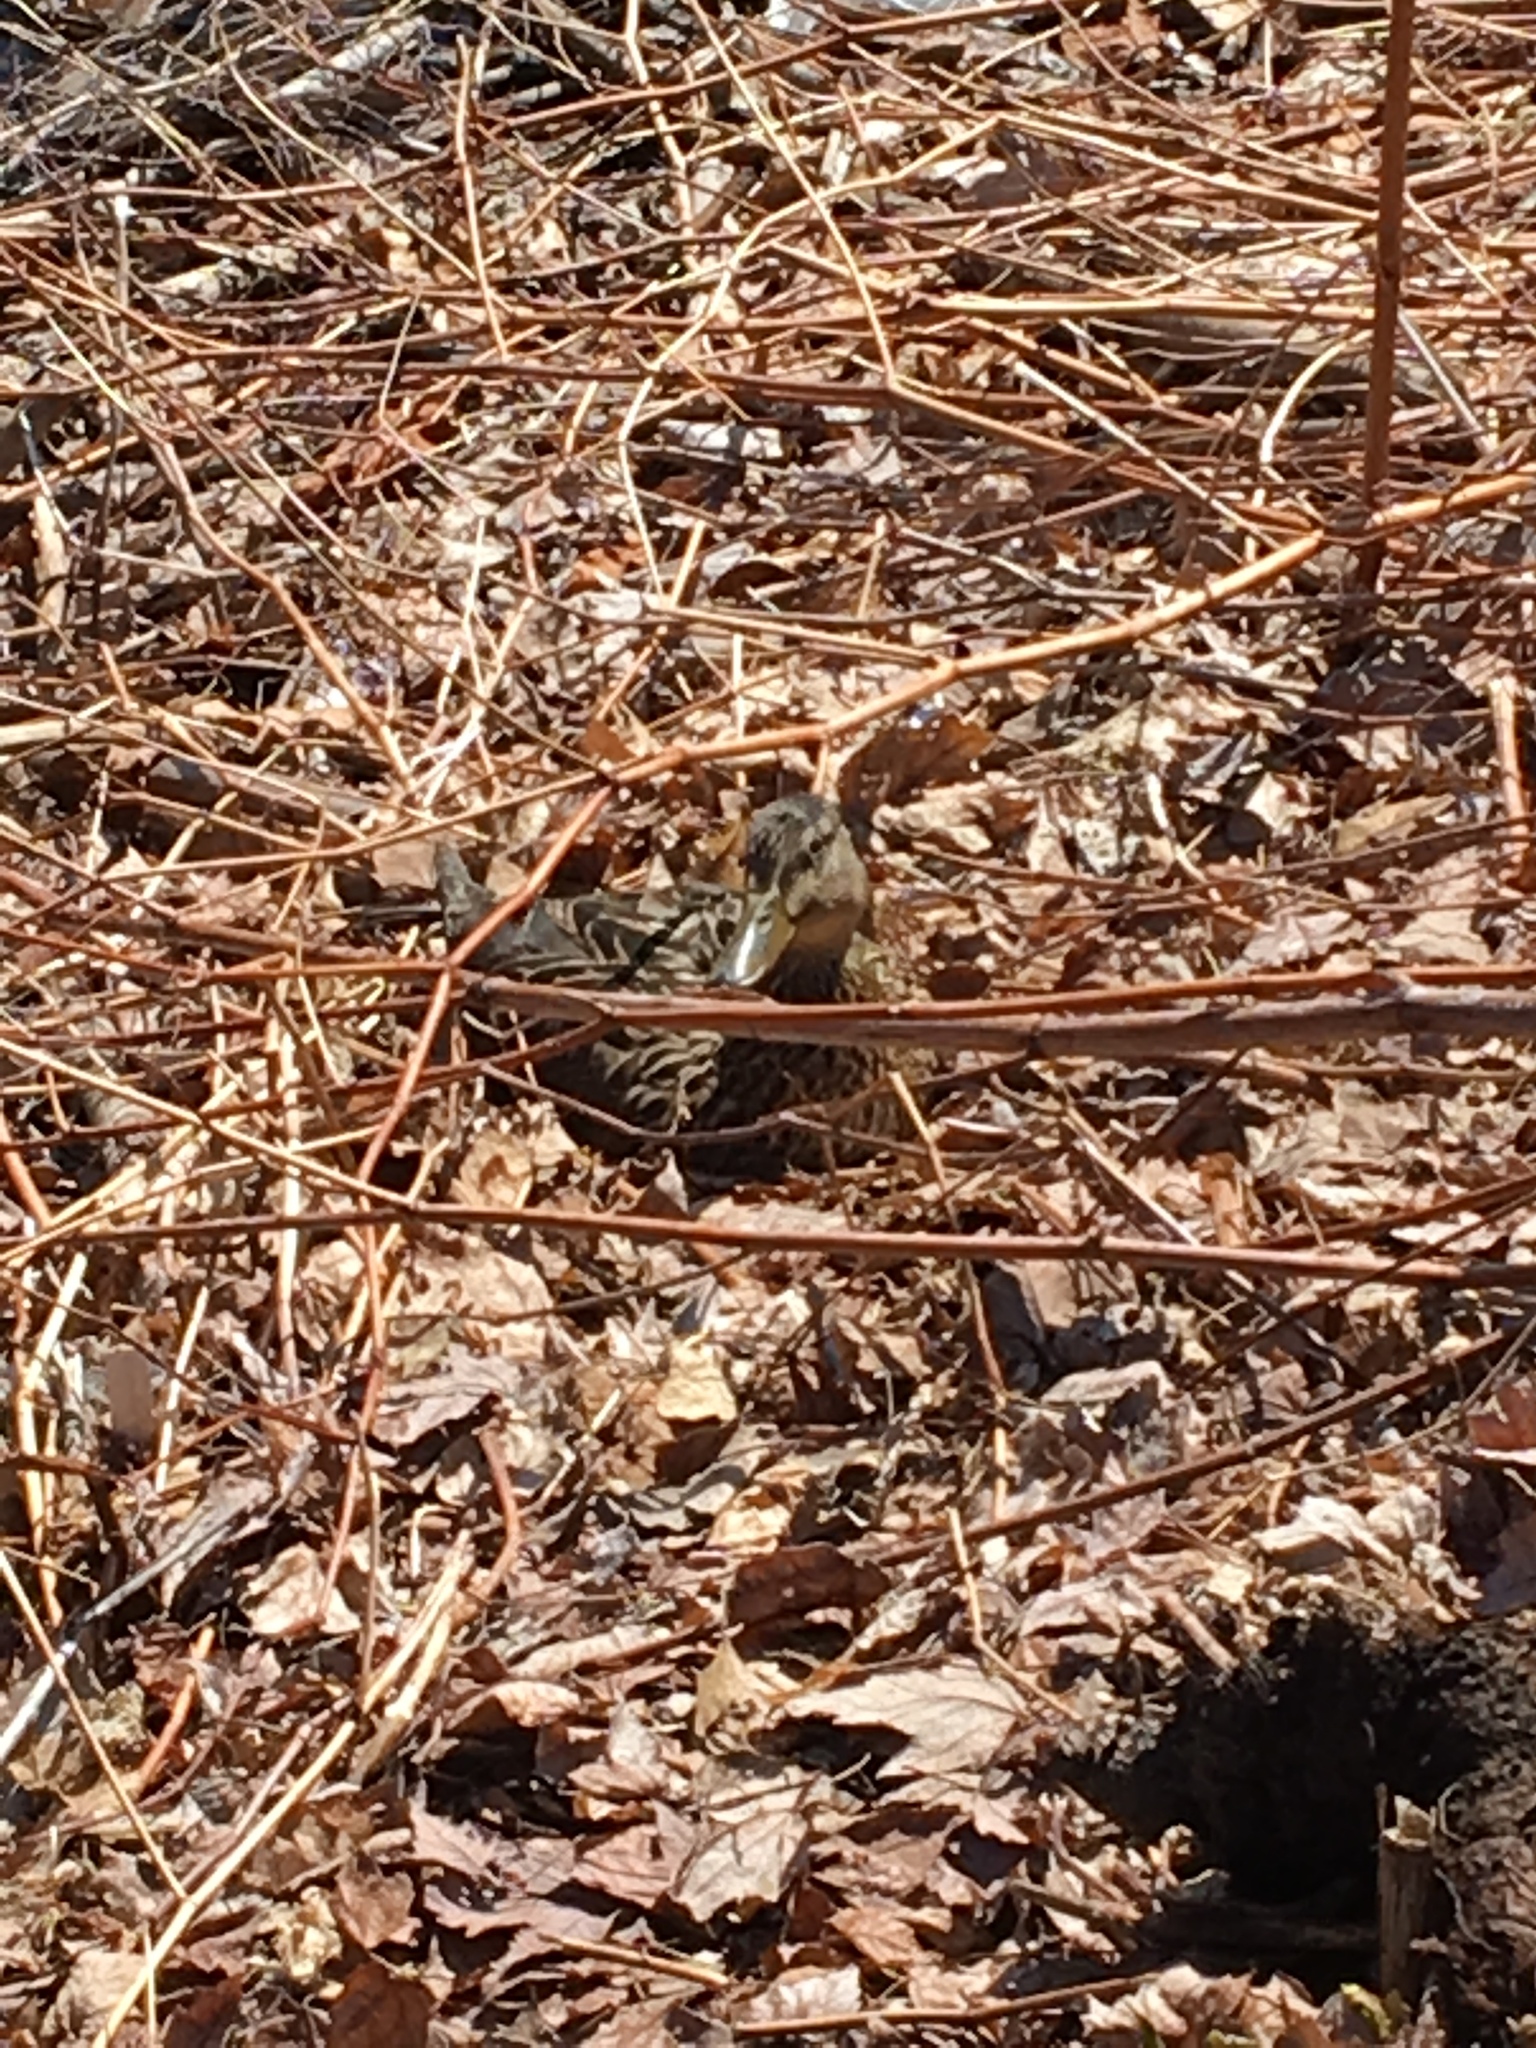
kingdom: Animalia
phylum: Chordata
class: Aves
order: Anseriformes
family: Anatidae
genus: Anas
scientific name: Anas platyrhynchos
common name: Mallard
